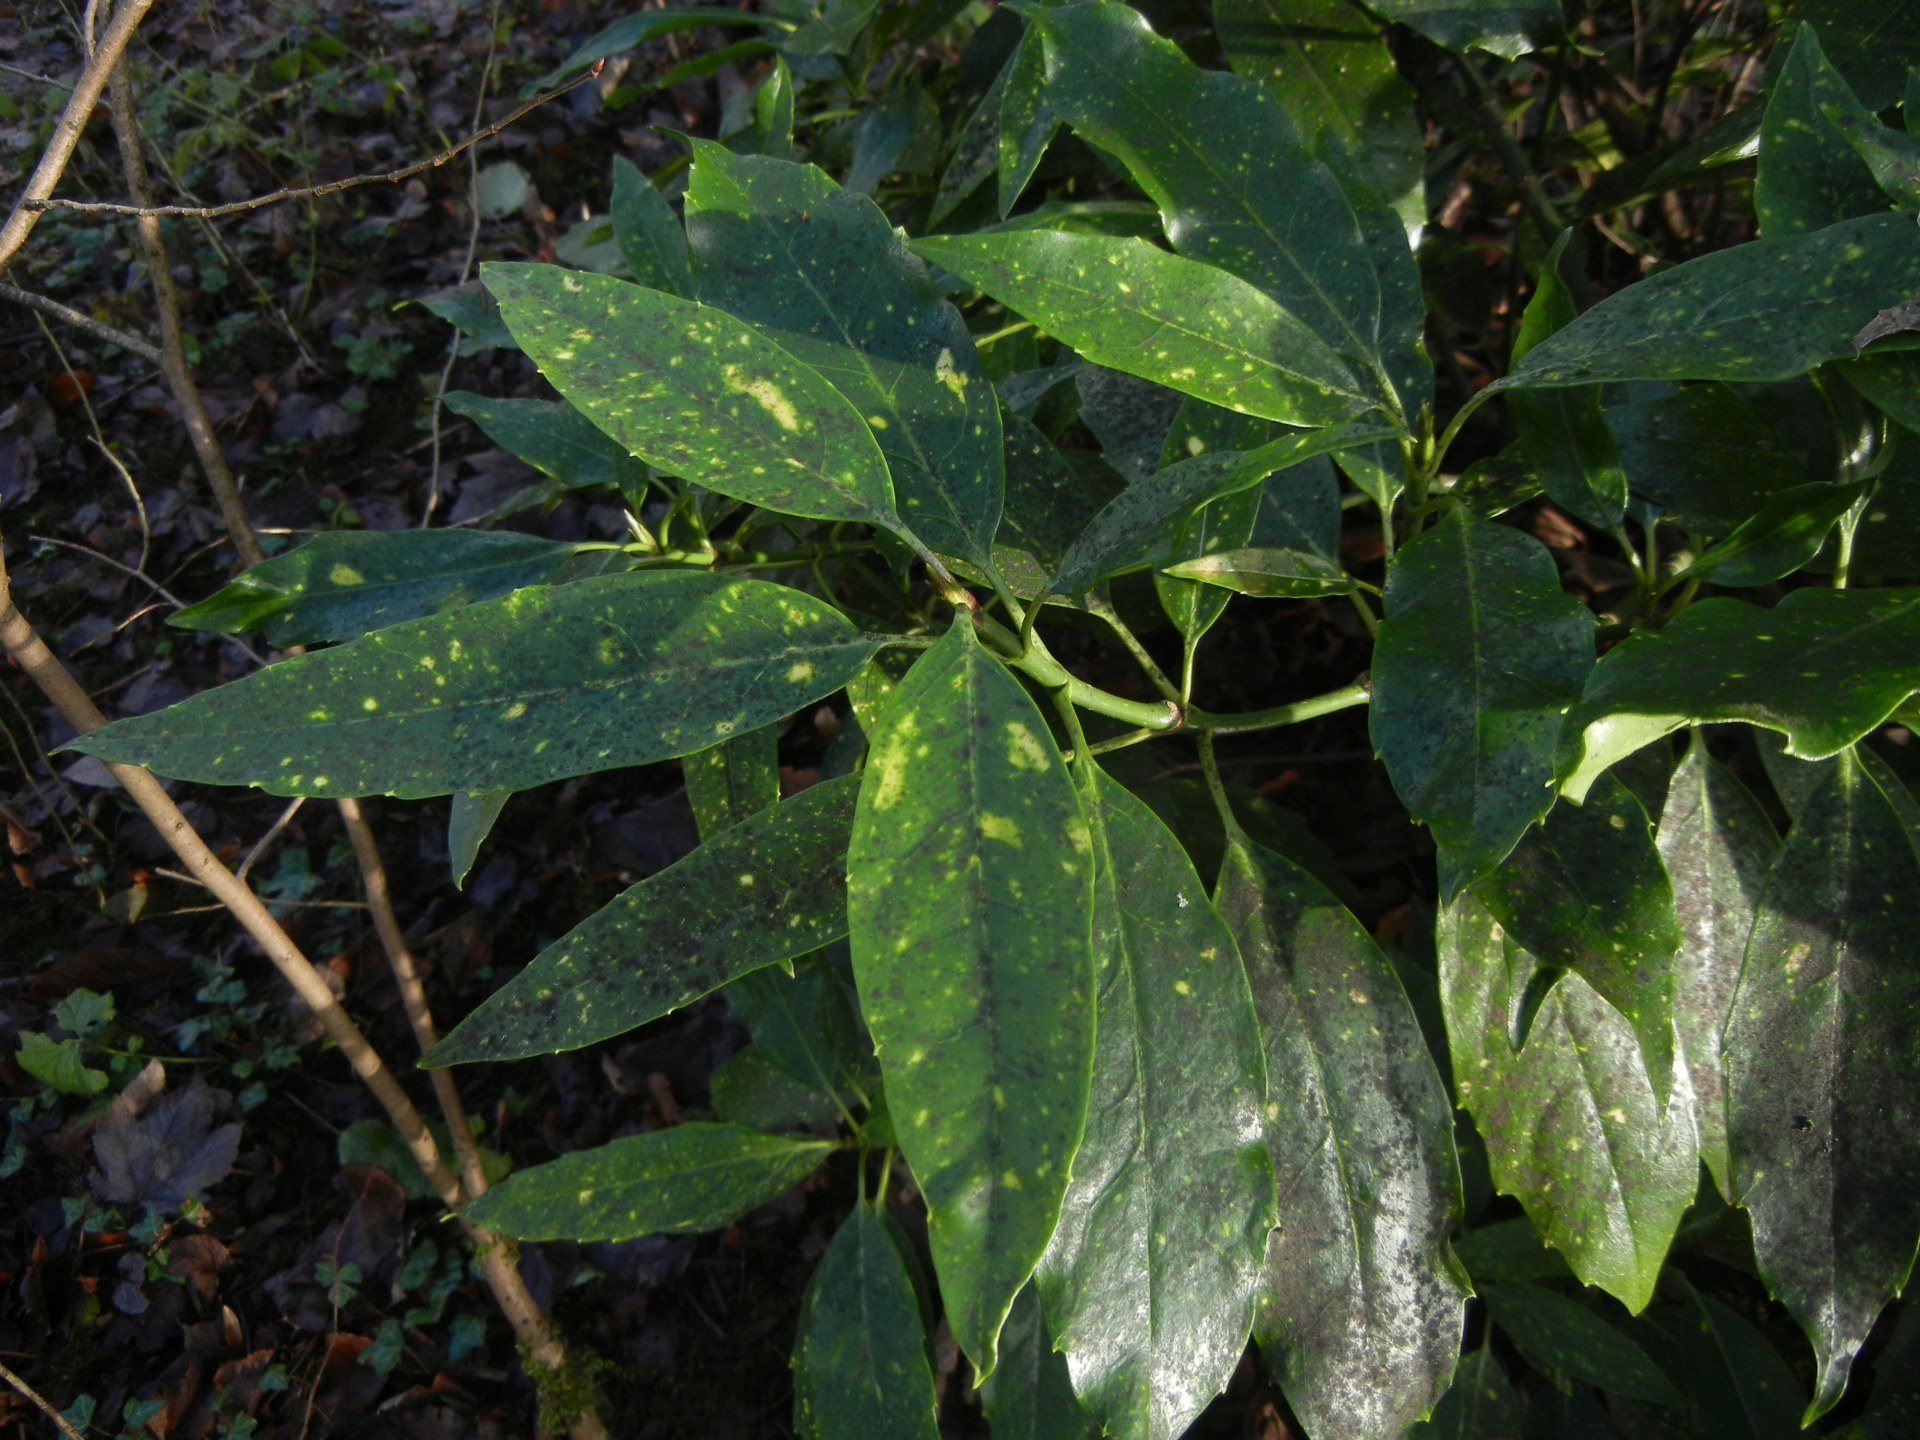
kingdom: Plantae
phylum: Tracheophyta
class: Magnoliopsida
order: Garryales
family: Garryaceae
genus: Aucuba
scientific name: Aucuba japonica
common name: Spotted-laurel
